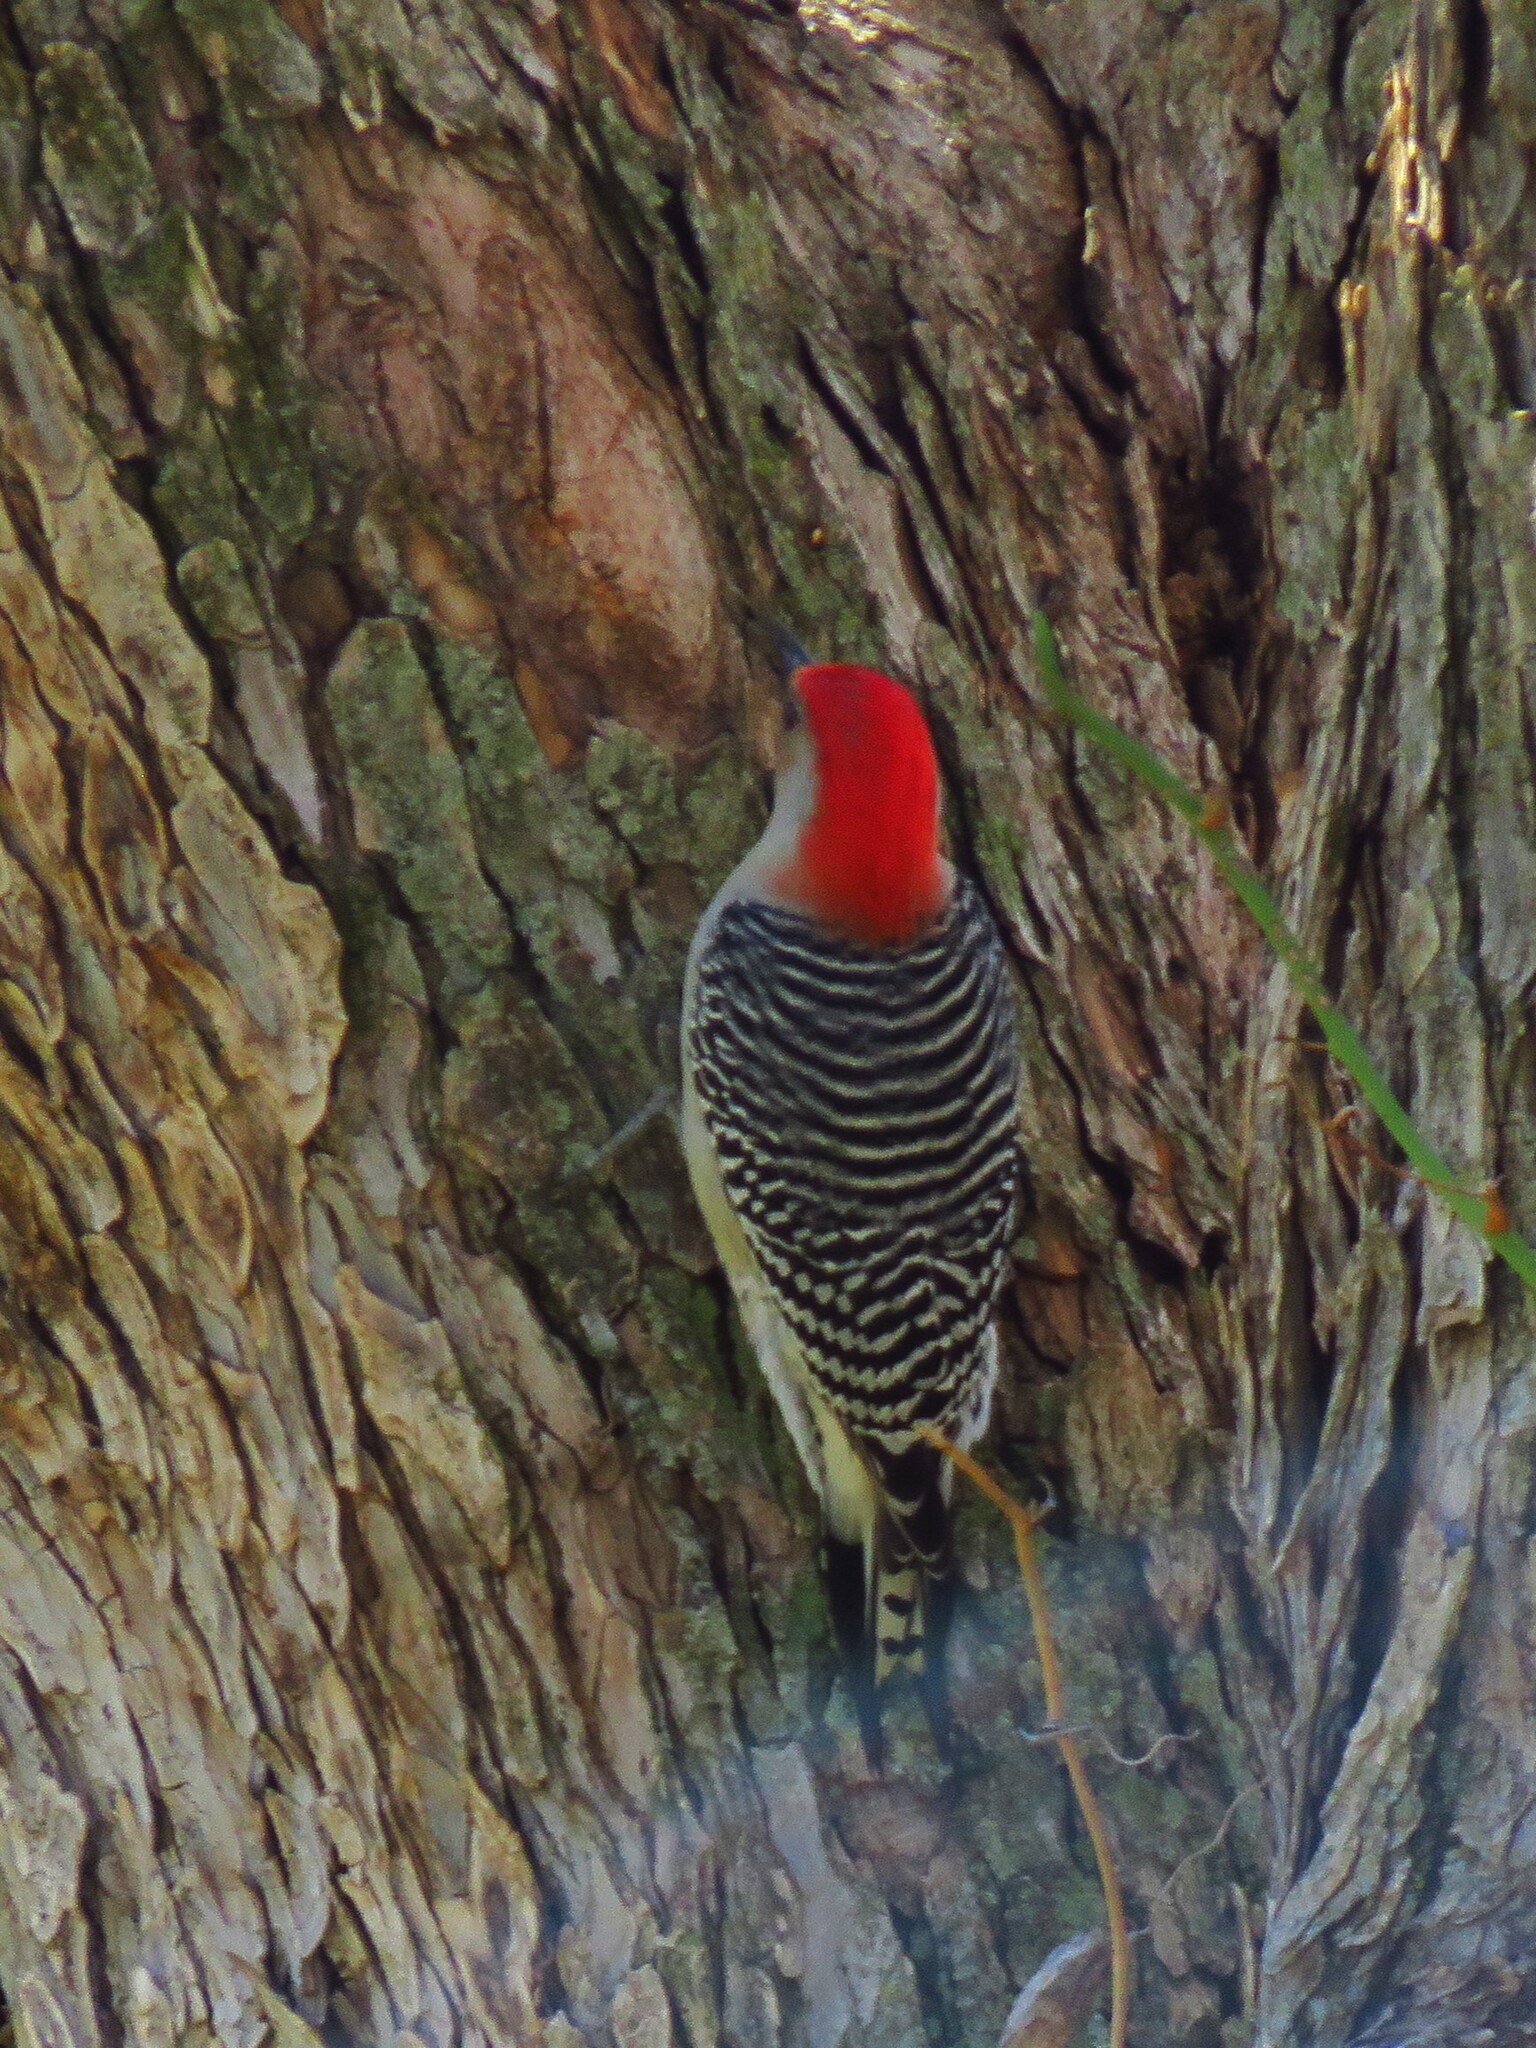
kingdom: Animalia
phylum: Chordata
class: Aves
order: Piciformes
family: Picidae
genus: Melanerpes
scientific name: Melanerpes carolinus
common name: Red-bellied woodpecker
